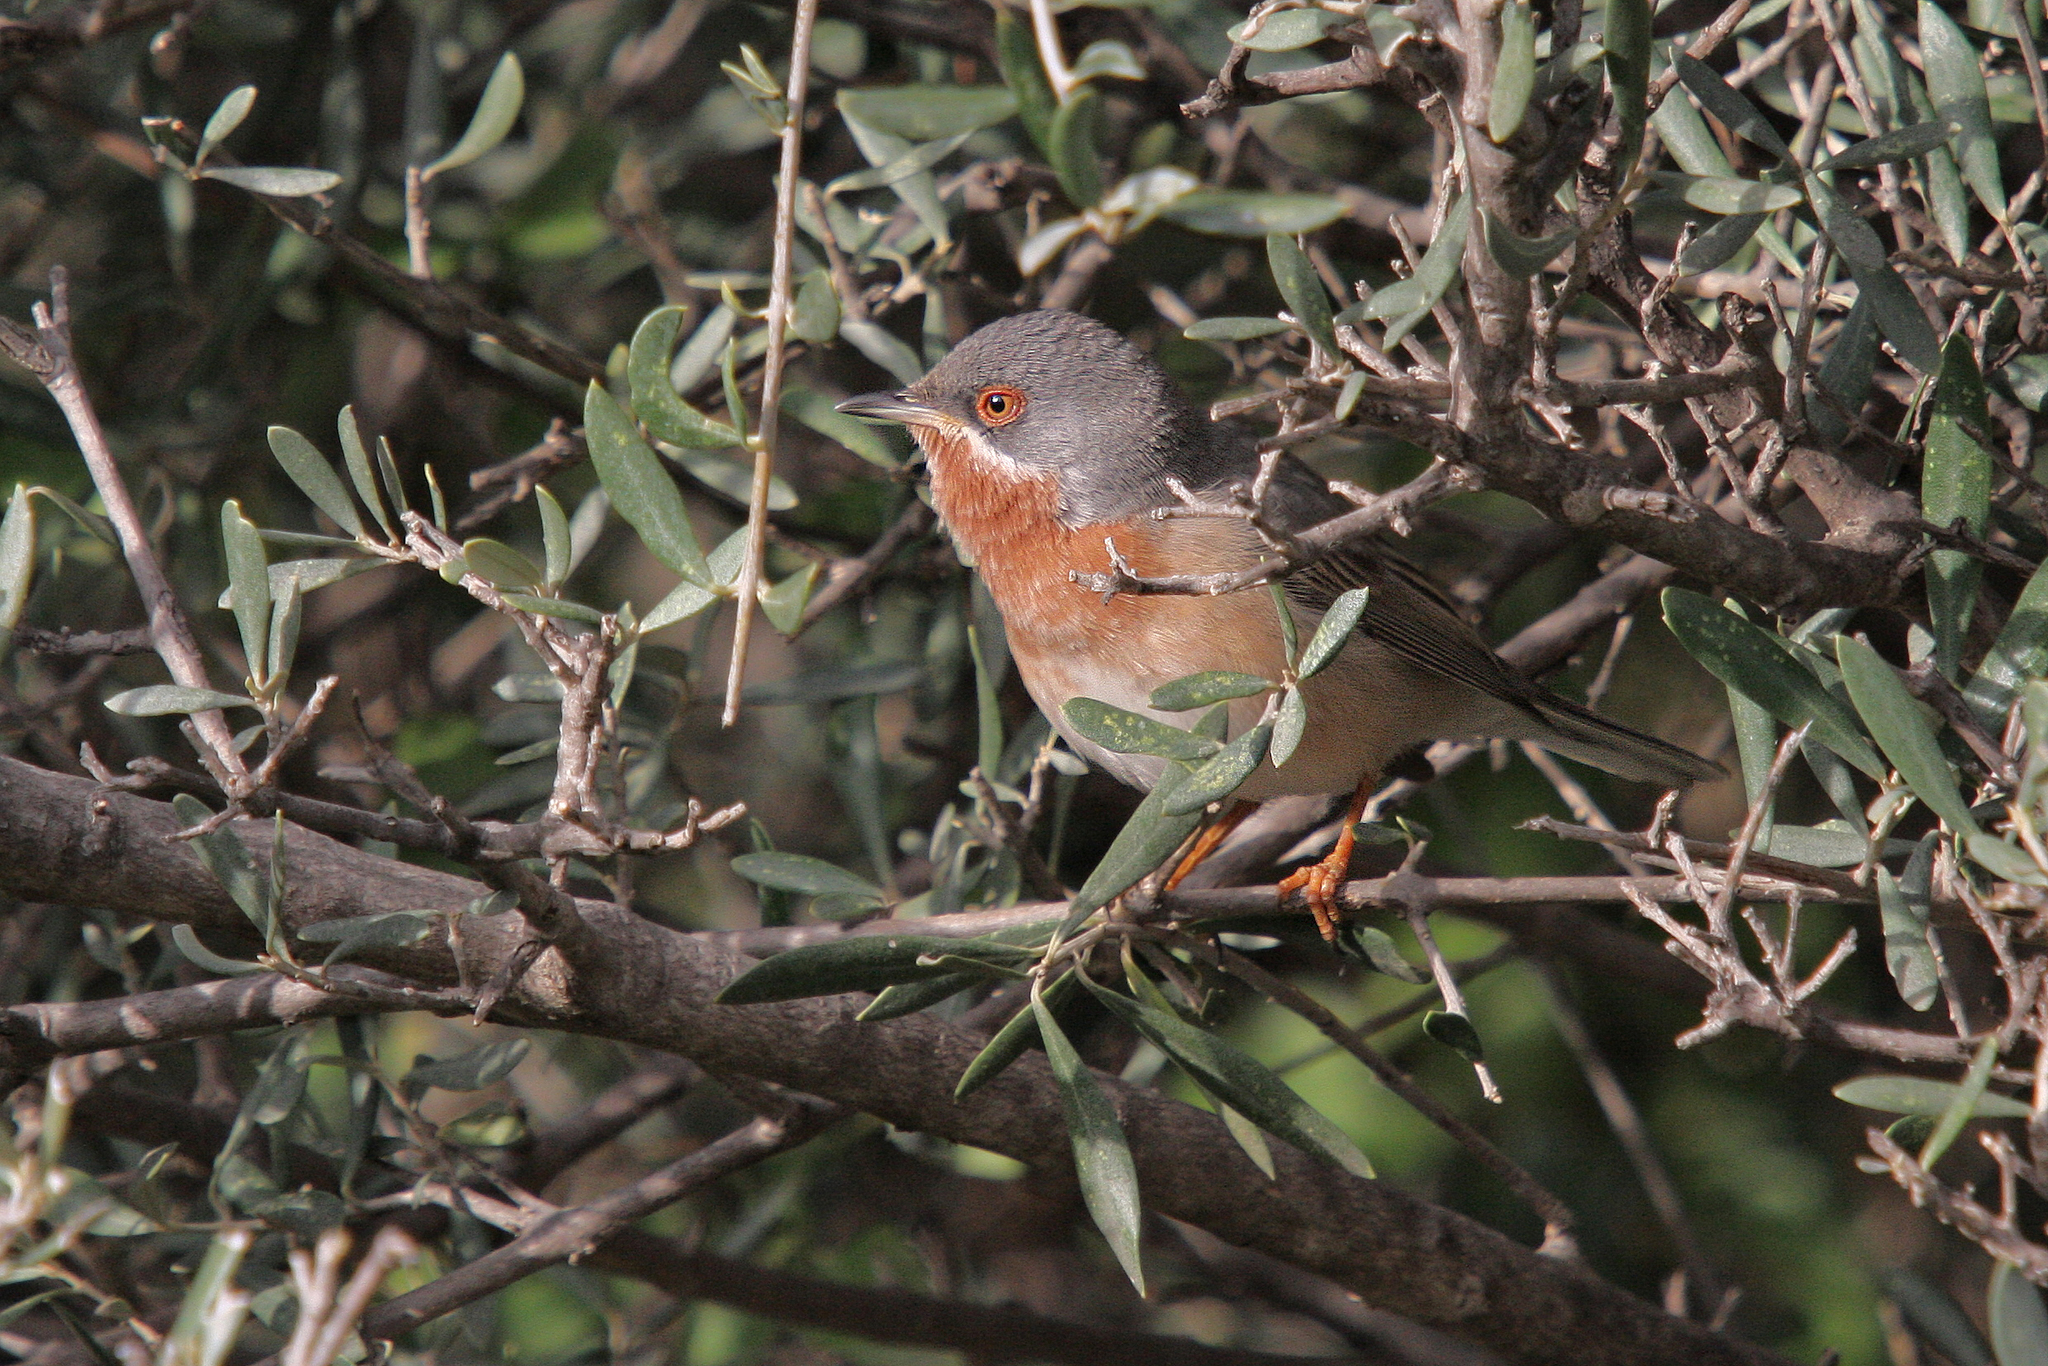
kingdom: Animalia
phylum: Chordata
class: Aves
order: Passeriformes
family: Sylviidae
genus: Curruca
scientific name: Curruca cantillans
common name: Subalpine warbler
